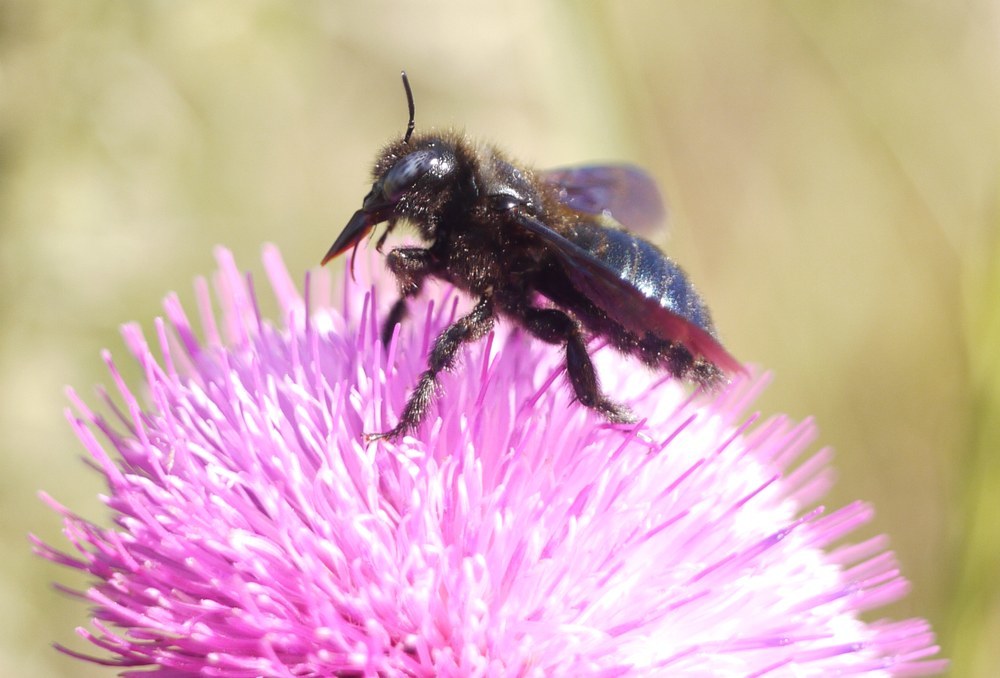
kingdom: Animalia
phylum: Arthropoda
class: Insecta
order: Hymenoptera
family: Apidae
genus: Xylocopa
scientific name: Xylocopa iris
